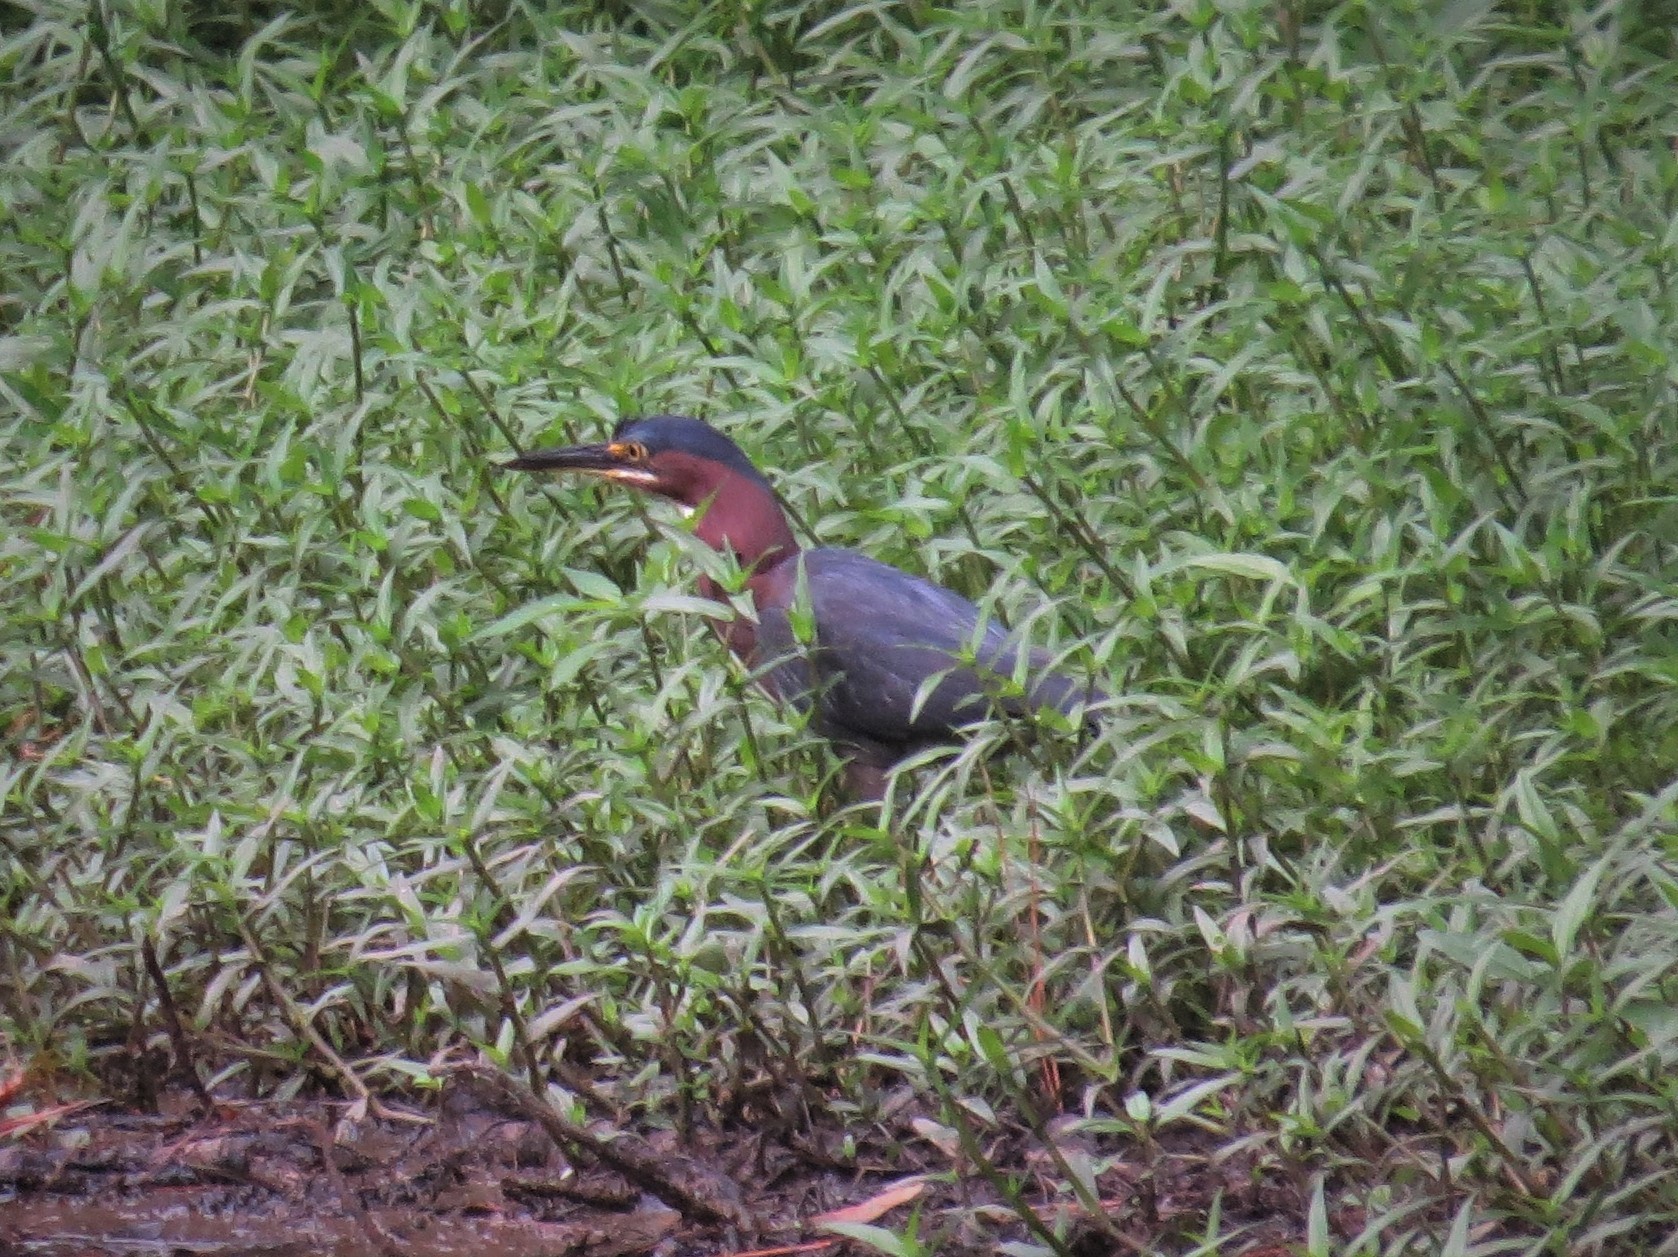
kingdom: Animalia
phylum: Chordata
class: Aves
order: Pelecaniformes
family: Ardeidae
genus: Butorides
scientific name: Butorides virescens
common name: Green heron
